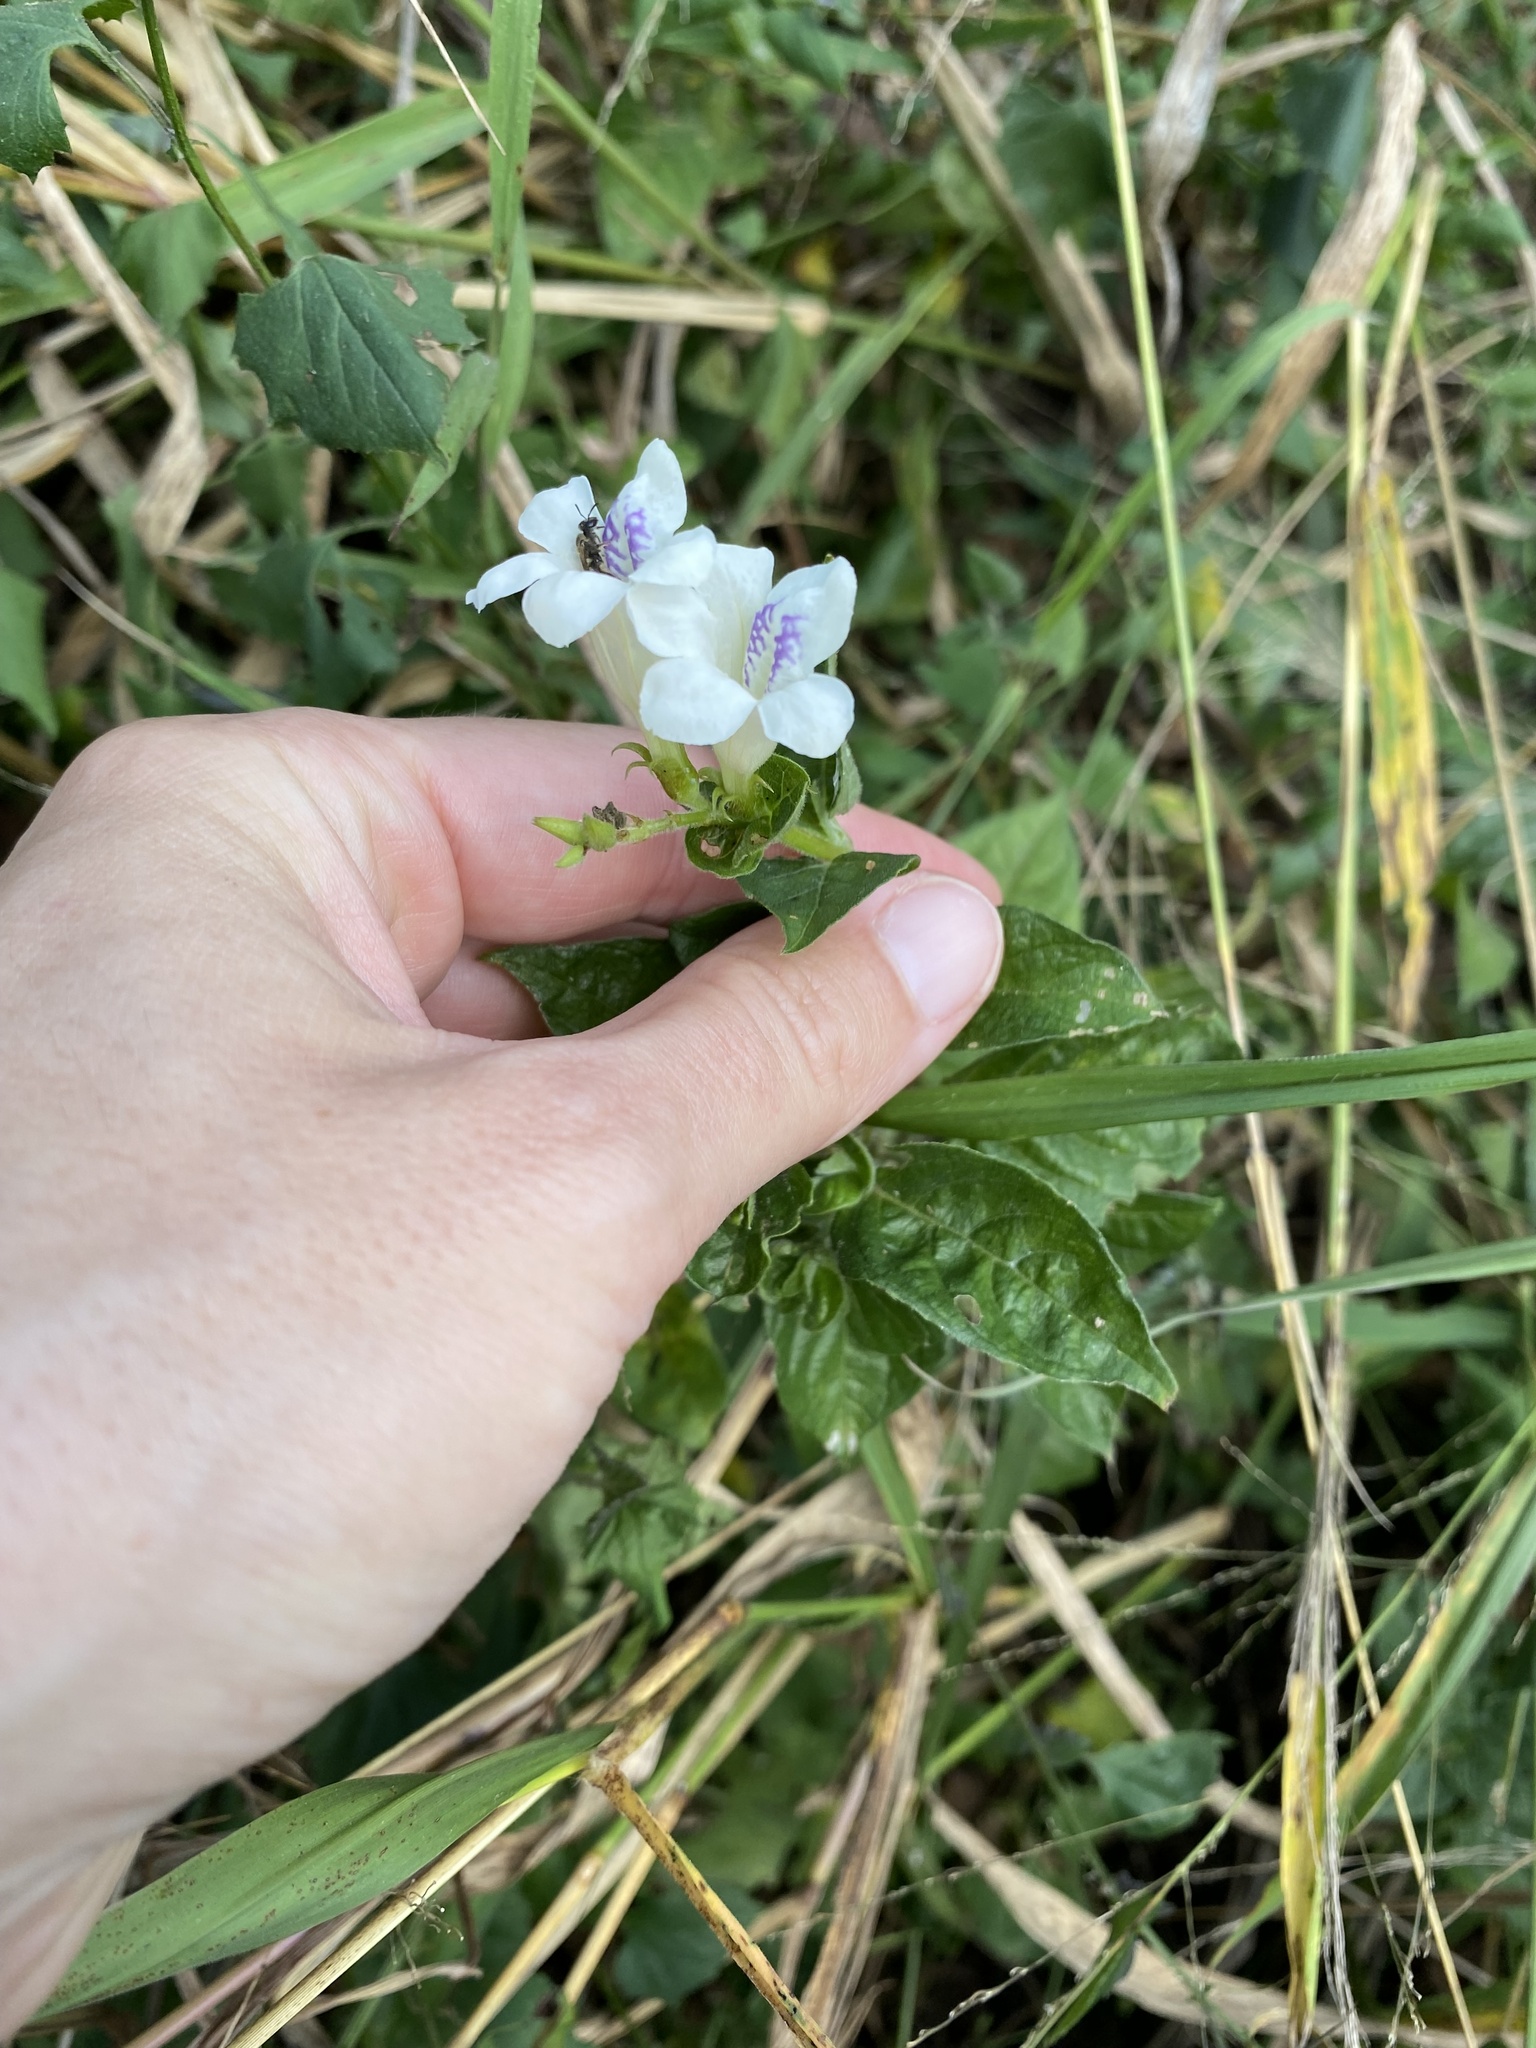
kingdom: Plantae
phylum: Tracheophyta
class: Magnoliopsida
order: Lamiales
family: Acanthaceae
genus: Asystasia
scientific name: Asystasia intrusa
